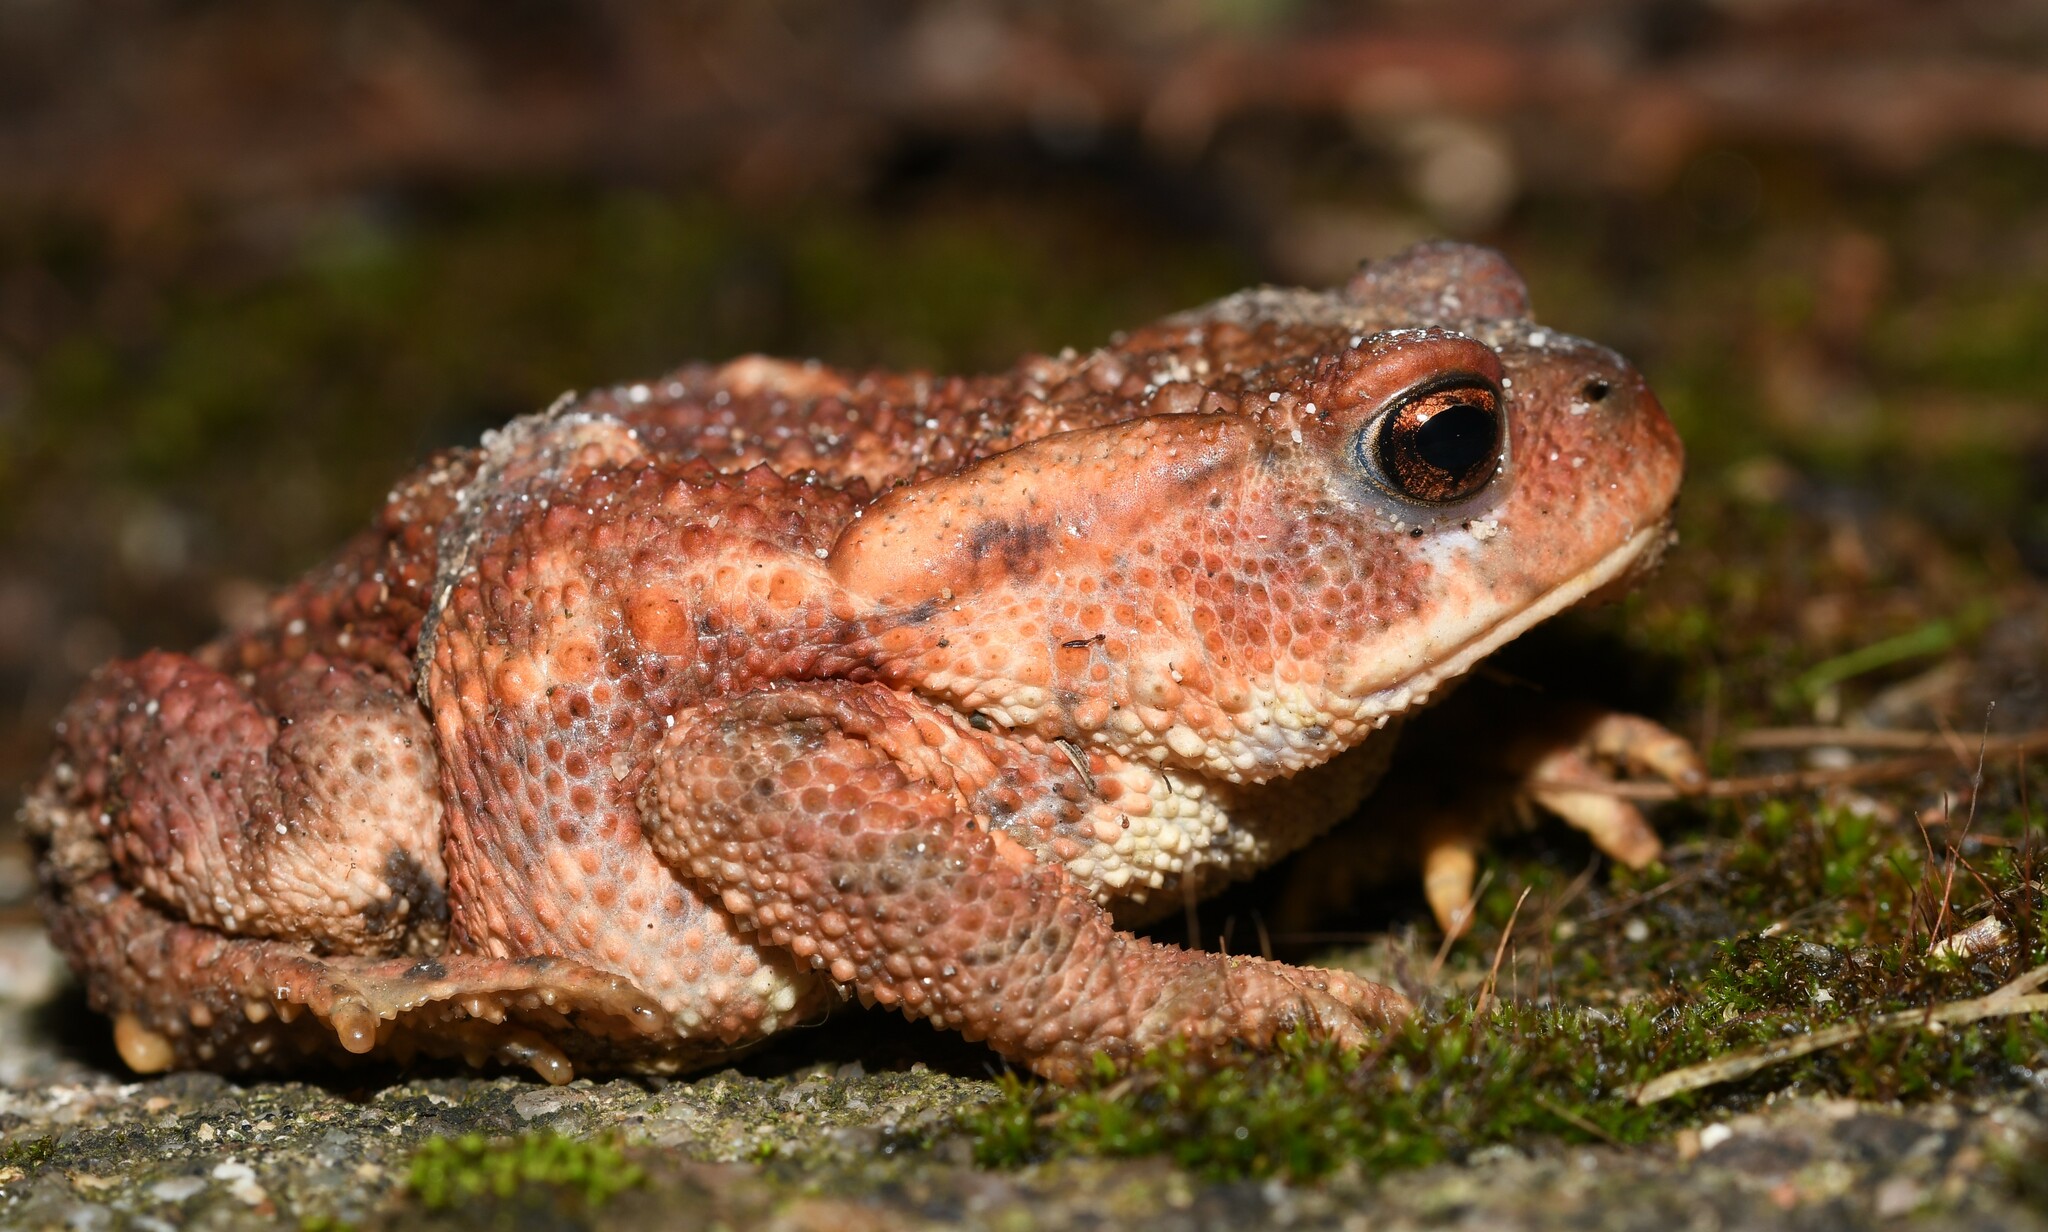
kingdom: Animalia
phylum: Chordata
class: Amphibia
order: Anura
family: Bufonidae
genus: Bufo
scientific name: Bufo spinosus
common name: Western common toad
